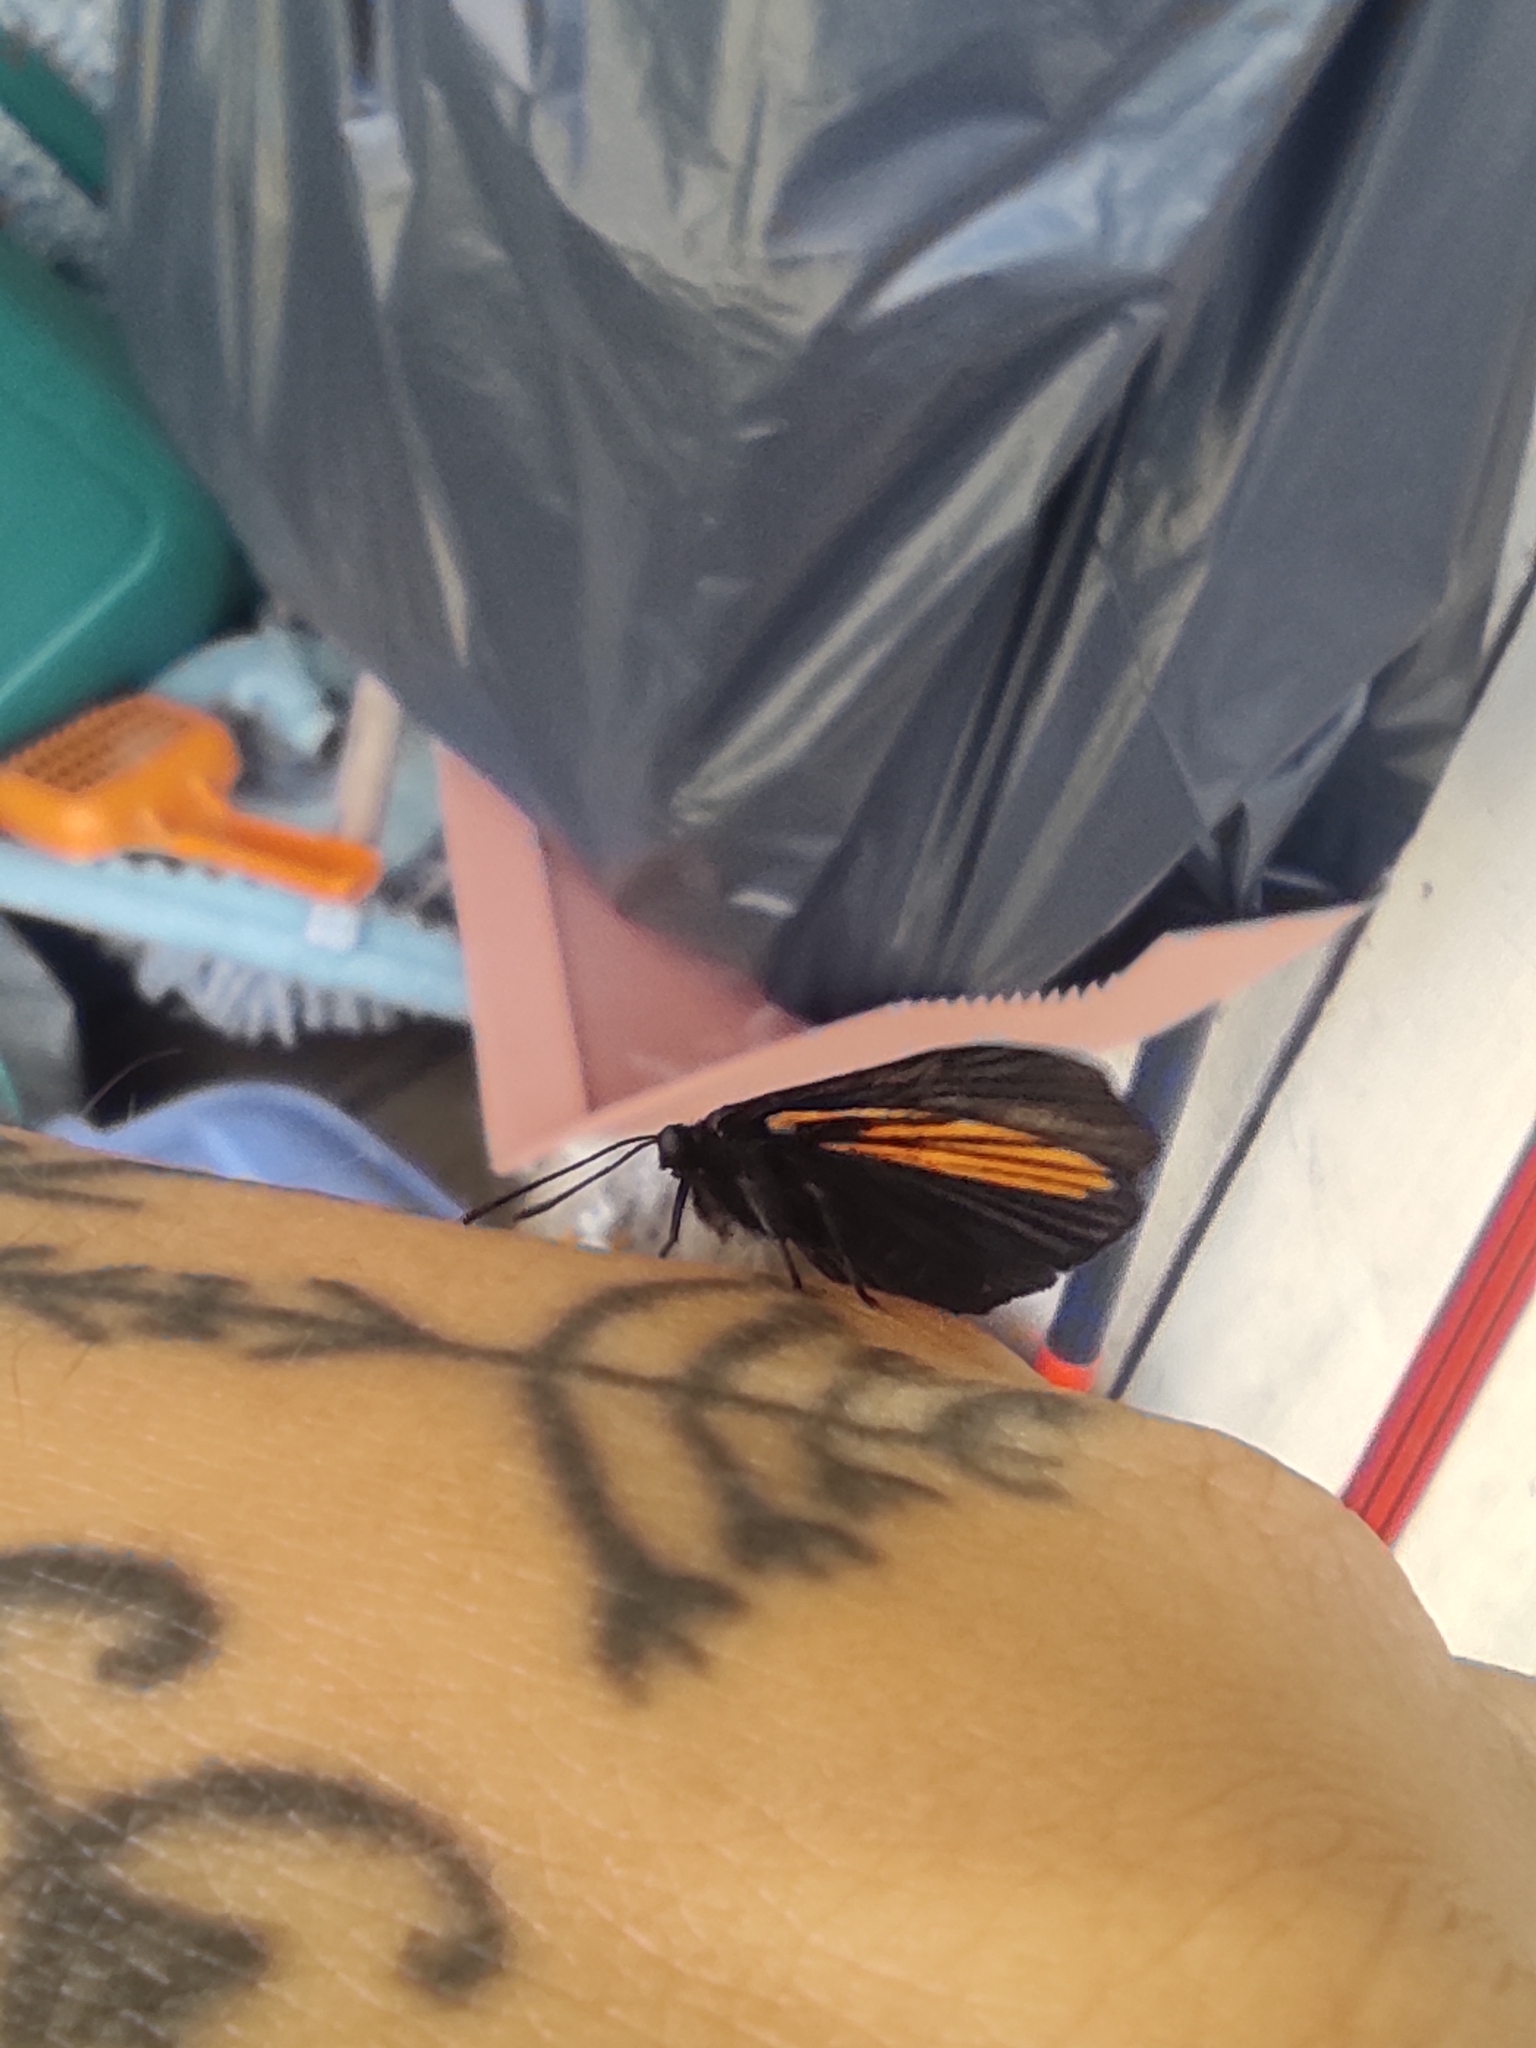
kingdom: Animalia
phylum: Arthropoda
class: Insecta
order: Lepidoptera
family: Riodinidae
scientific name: Riodinidae
